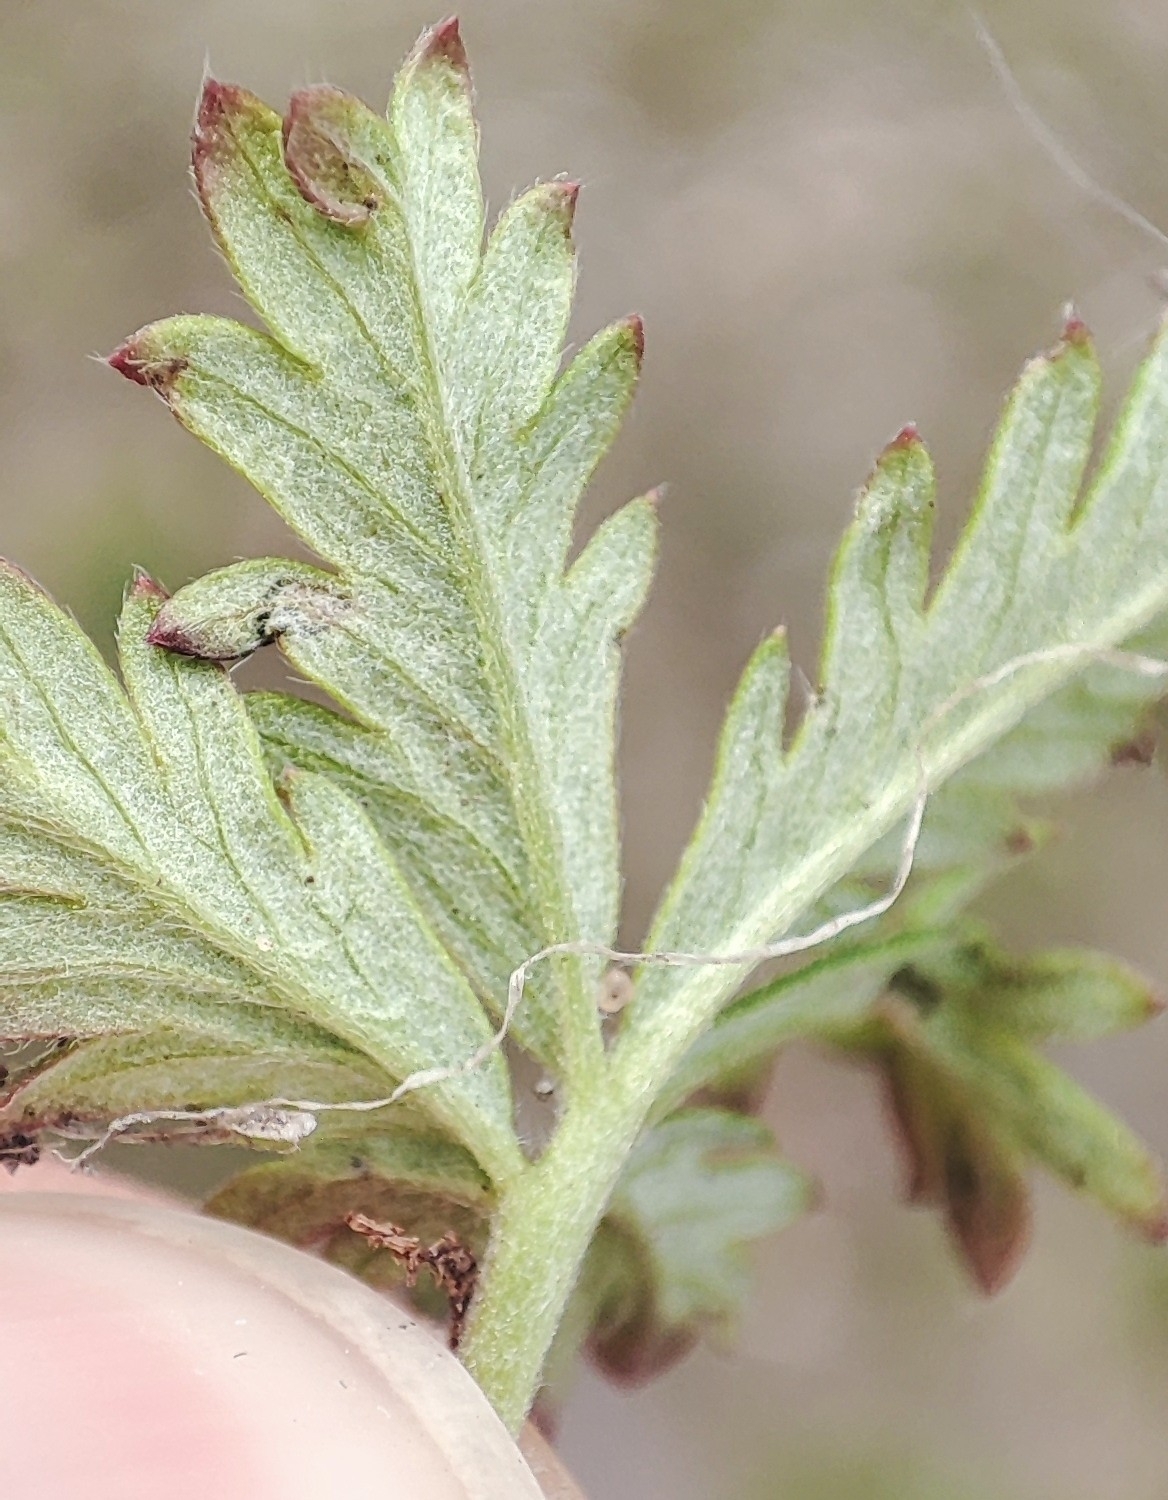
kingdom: Plantae
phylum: Tracheophyta
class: Magnoliopsida
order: Rosales
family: Rosaceae
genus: Potentilla
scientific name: Potentilla argentea
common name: Hoary cinquefoil
